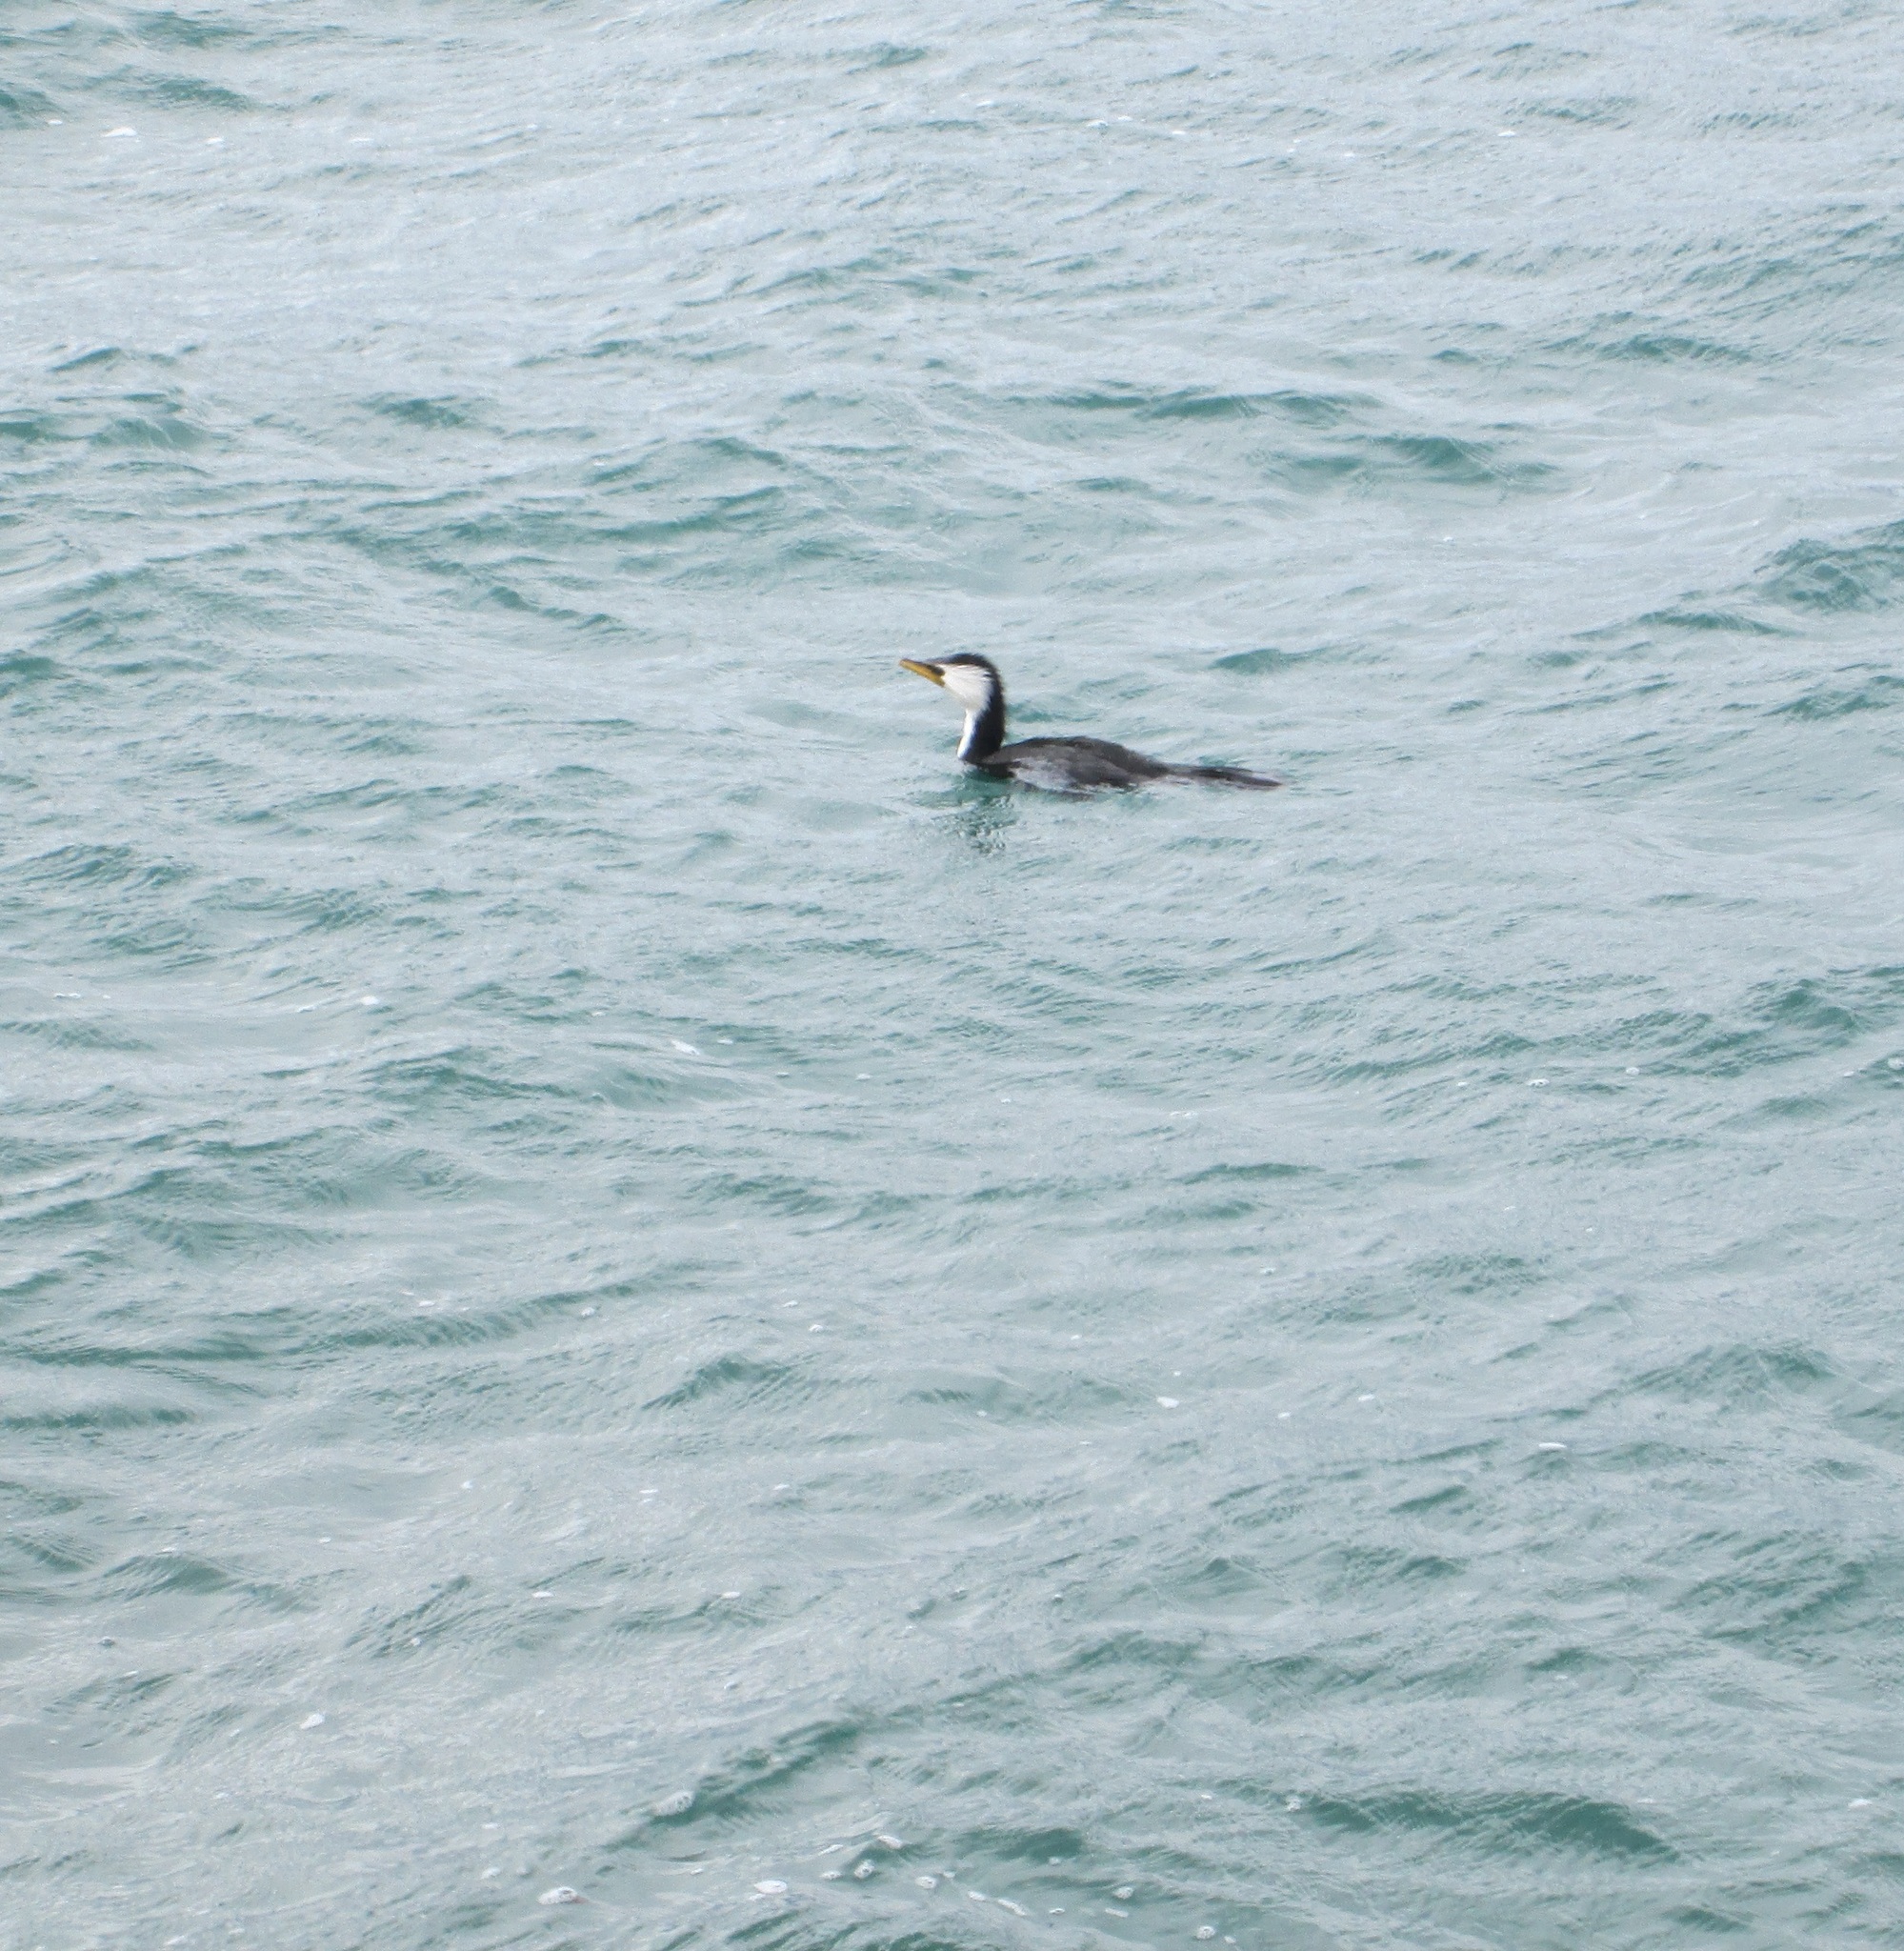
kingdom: Animalia
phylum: Chordata
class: Aves
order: Suliformes
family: Phalacrocoracidae
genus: Microcarbo
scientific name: Microcarbo melanoleucos
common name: Little pied cormorant
